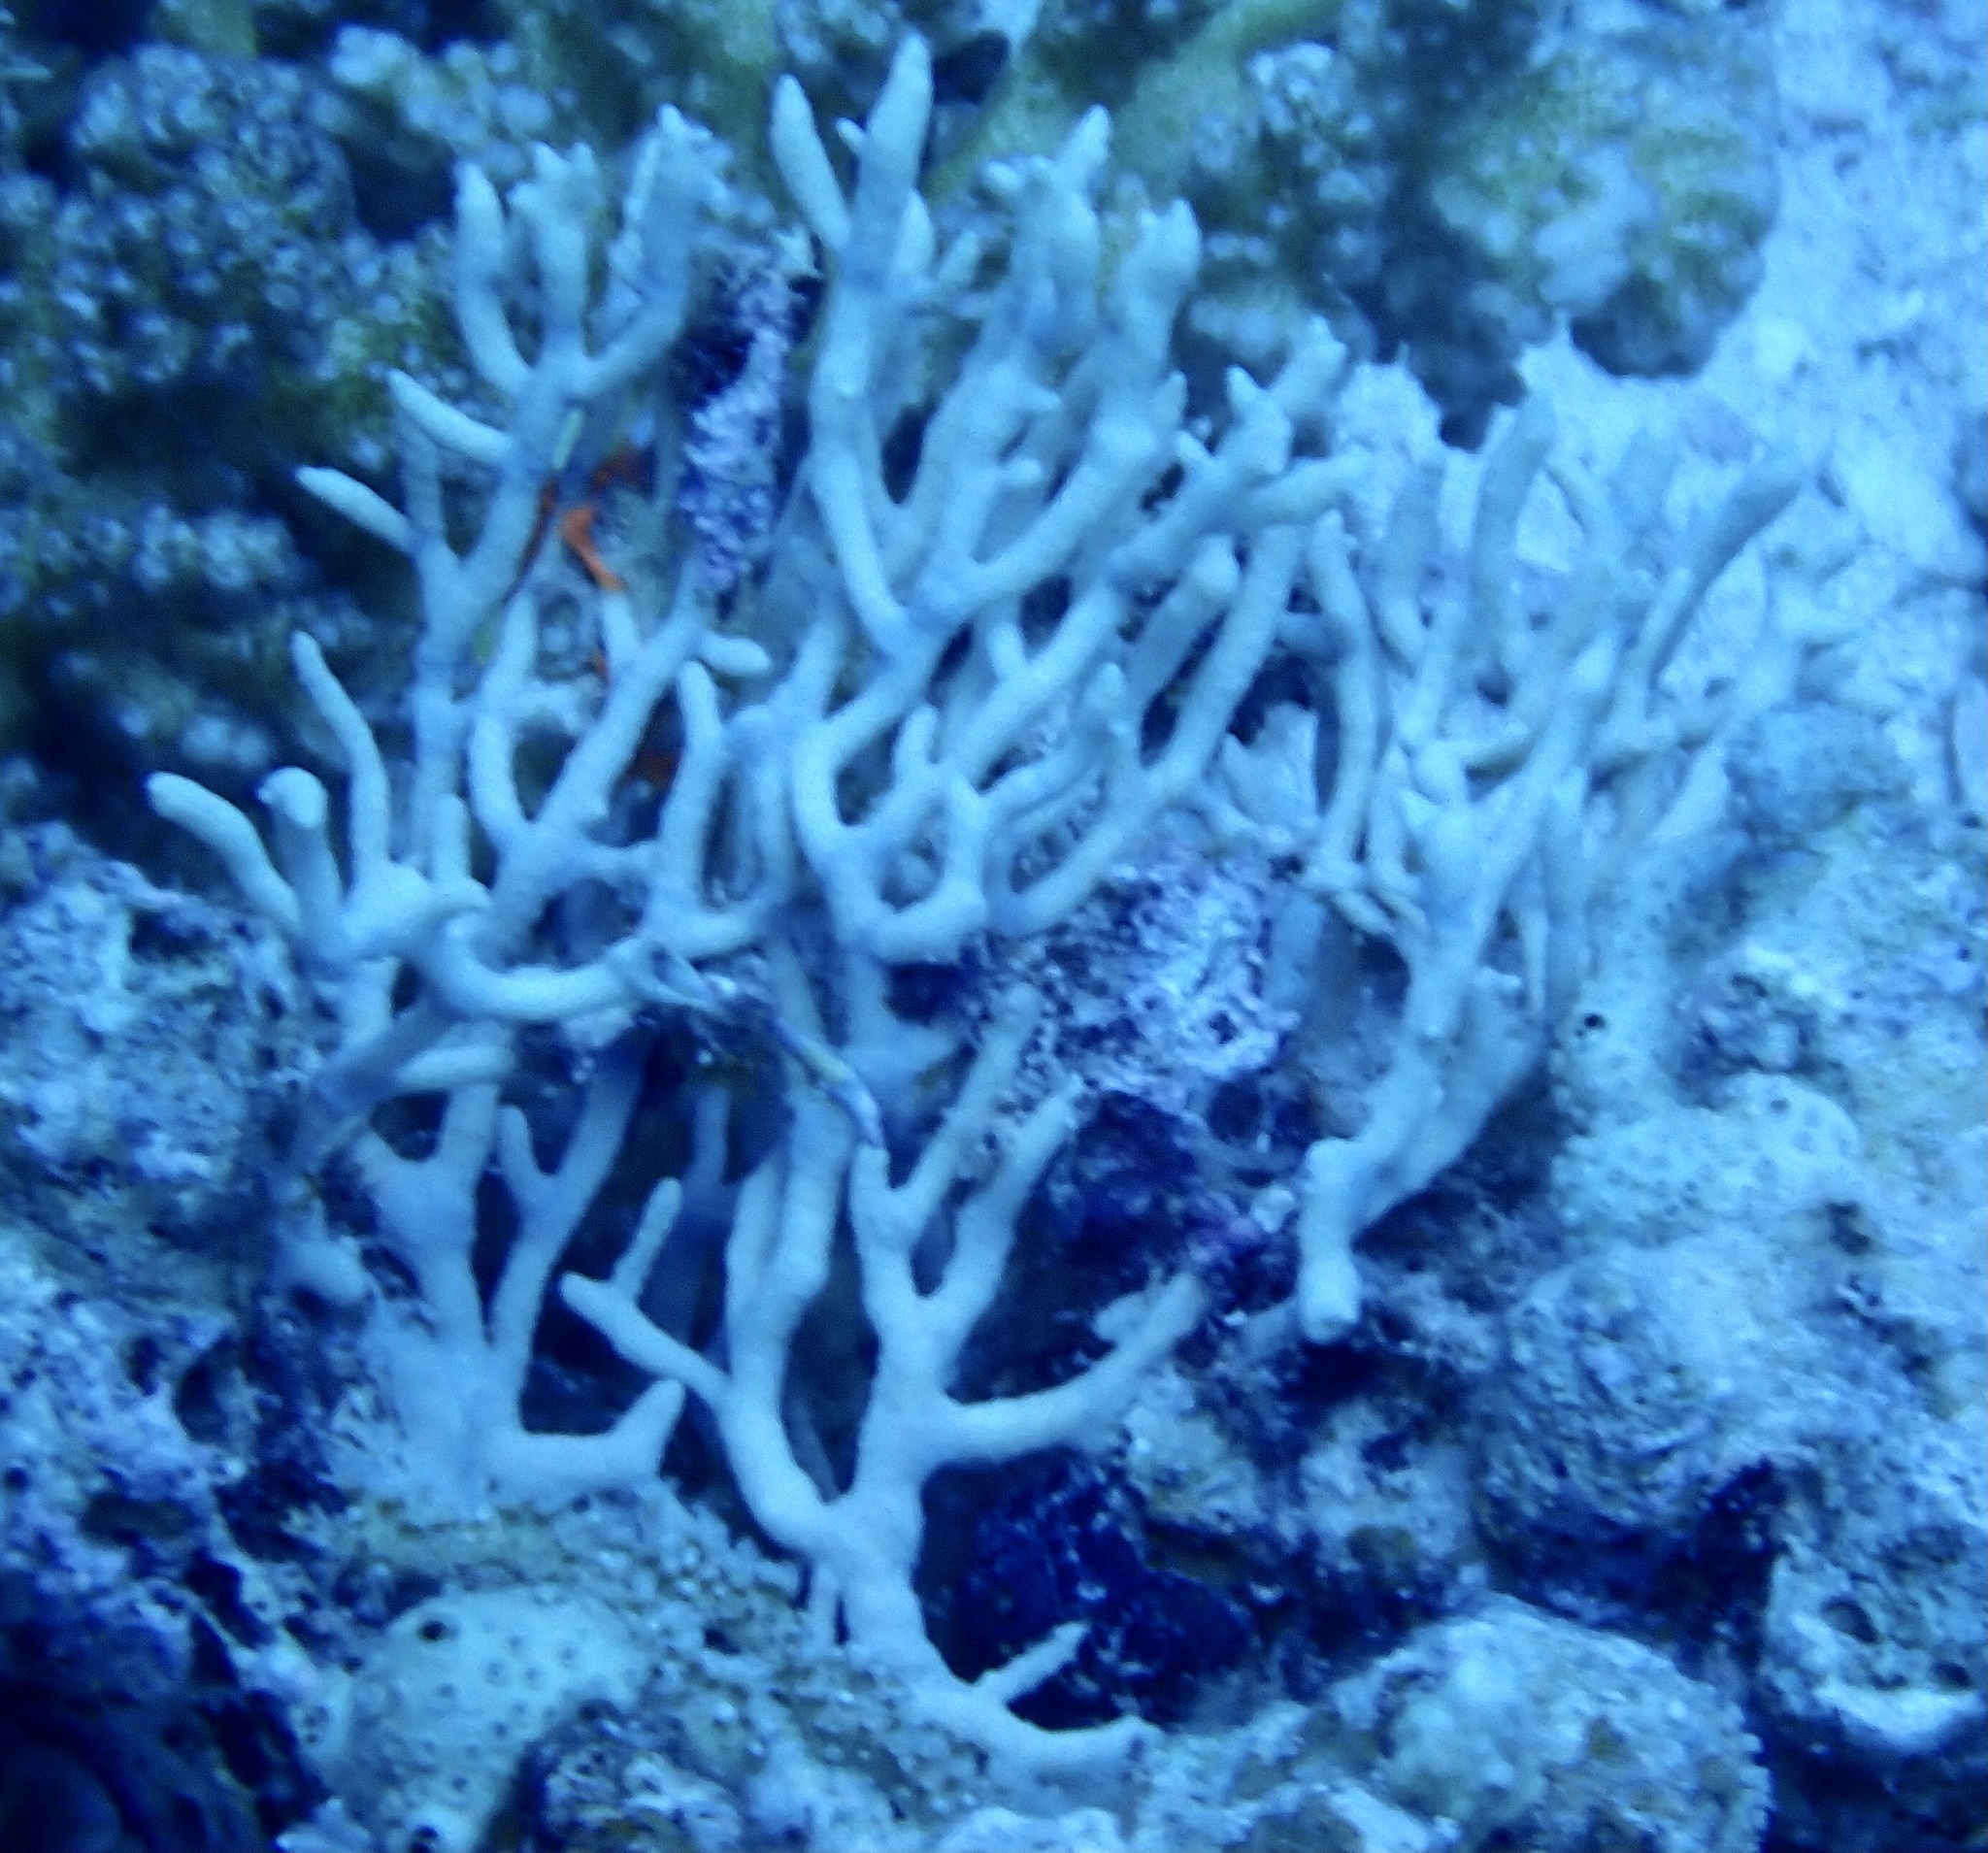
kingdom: Animalia
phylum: Cnidaria
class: Anthozoa
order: Malacalcyonacea
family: Melithaeidae
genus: Melithaea
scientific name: Melithaea rubrinodis
